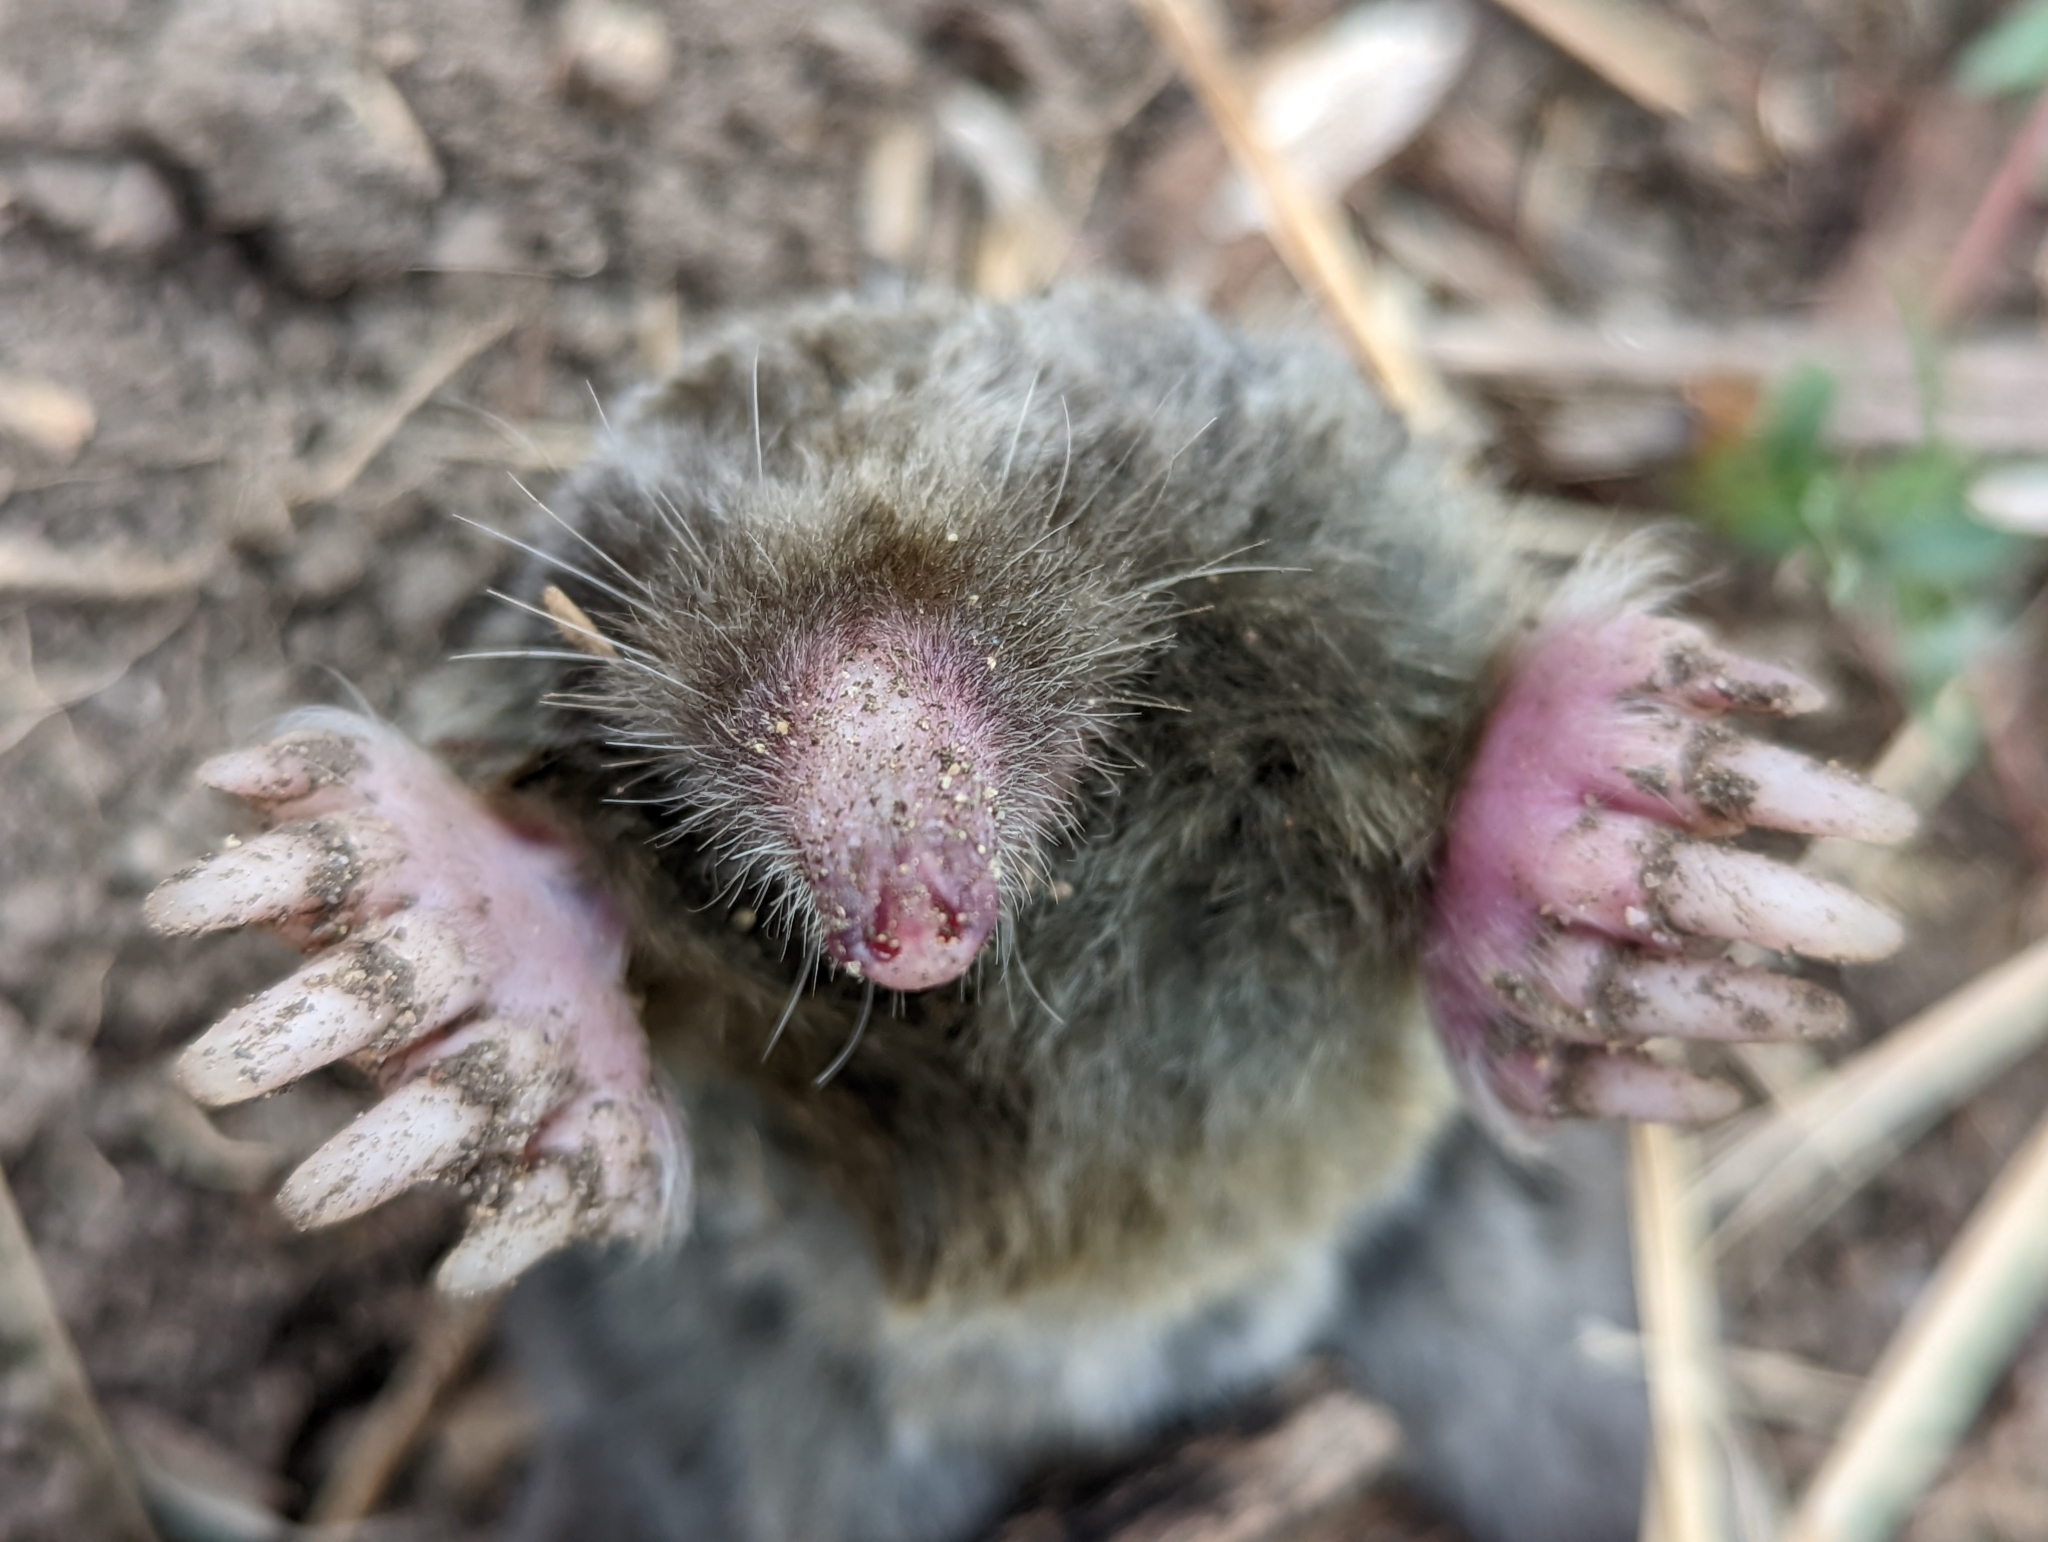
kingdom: Animalia
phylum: Chordata
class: Mammalia
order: Soricomorpha
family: Talpidae
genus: Scapanus
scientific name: Scapanus latimanus
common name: Broad-footed mole
